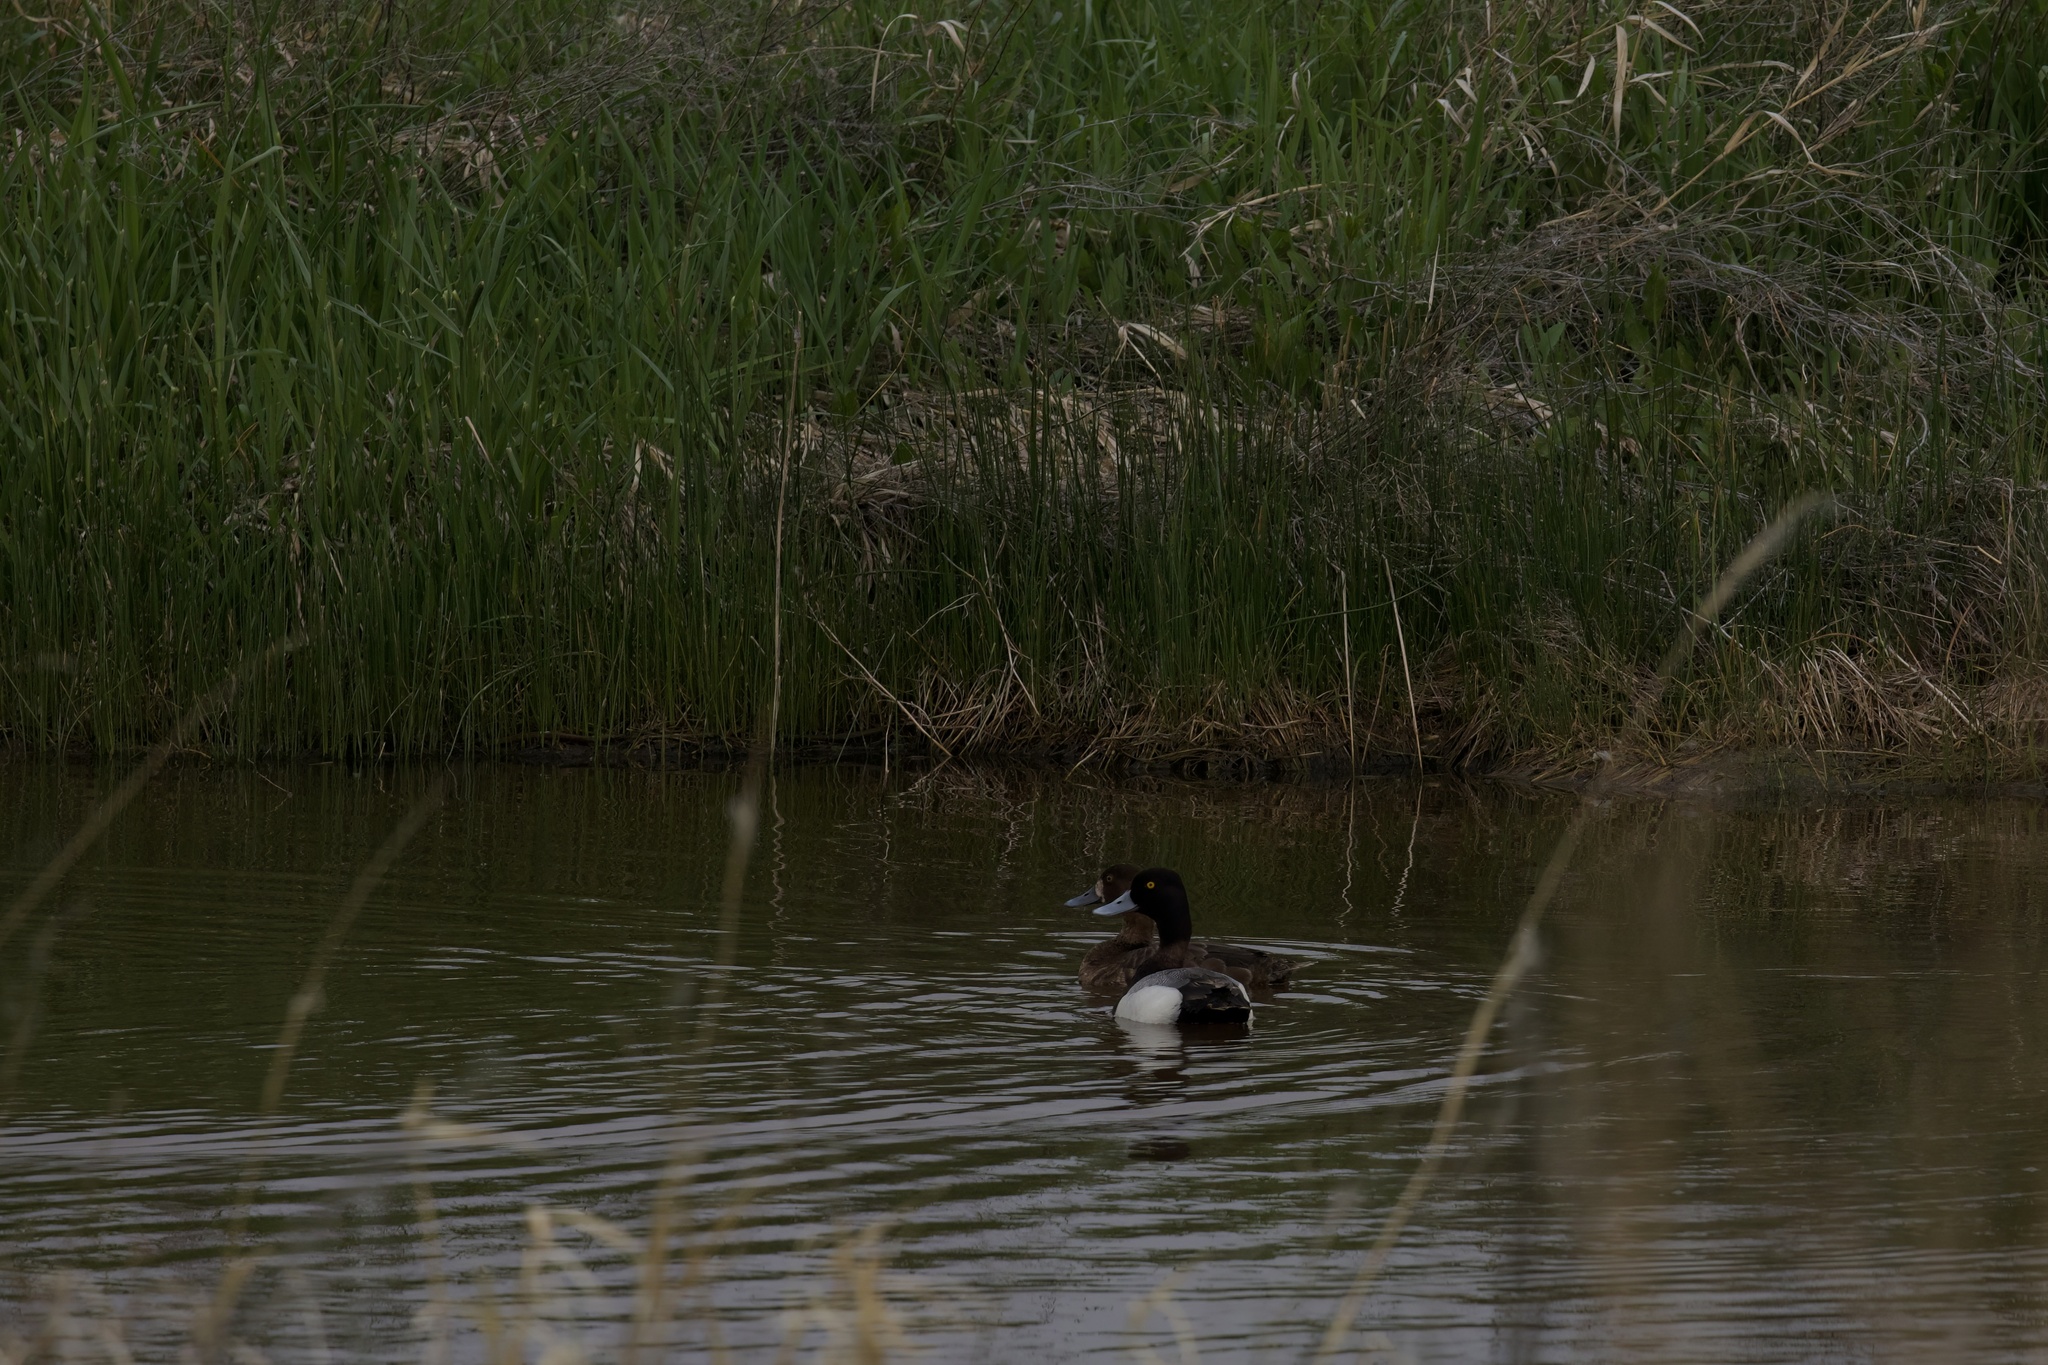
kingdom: Animalia
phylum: Chordata
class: Aves
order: Anseriformes
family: Anatidae
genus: Aythya
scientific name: Aythya affinis
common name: Lesser scaup
